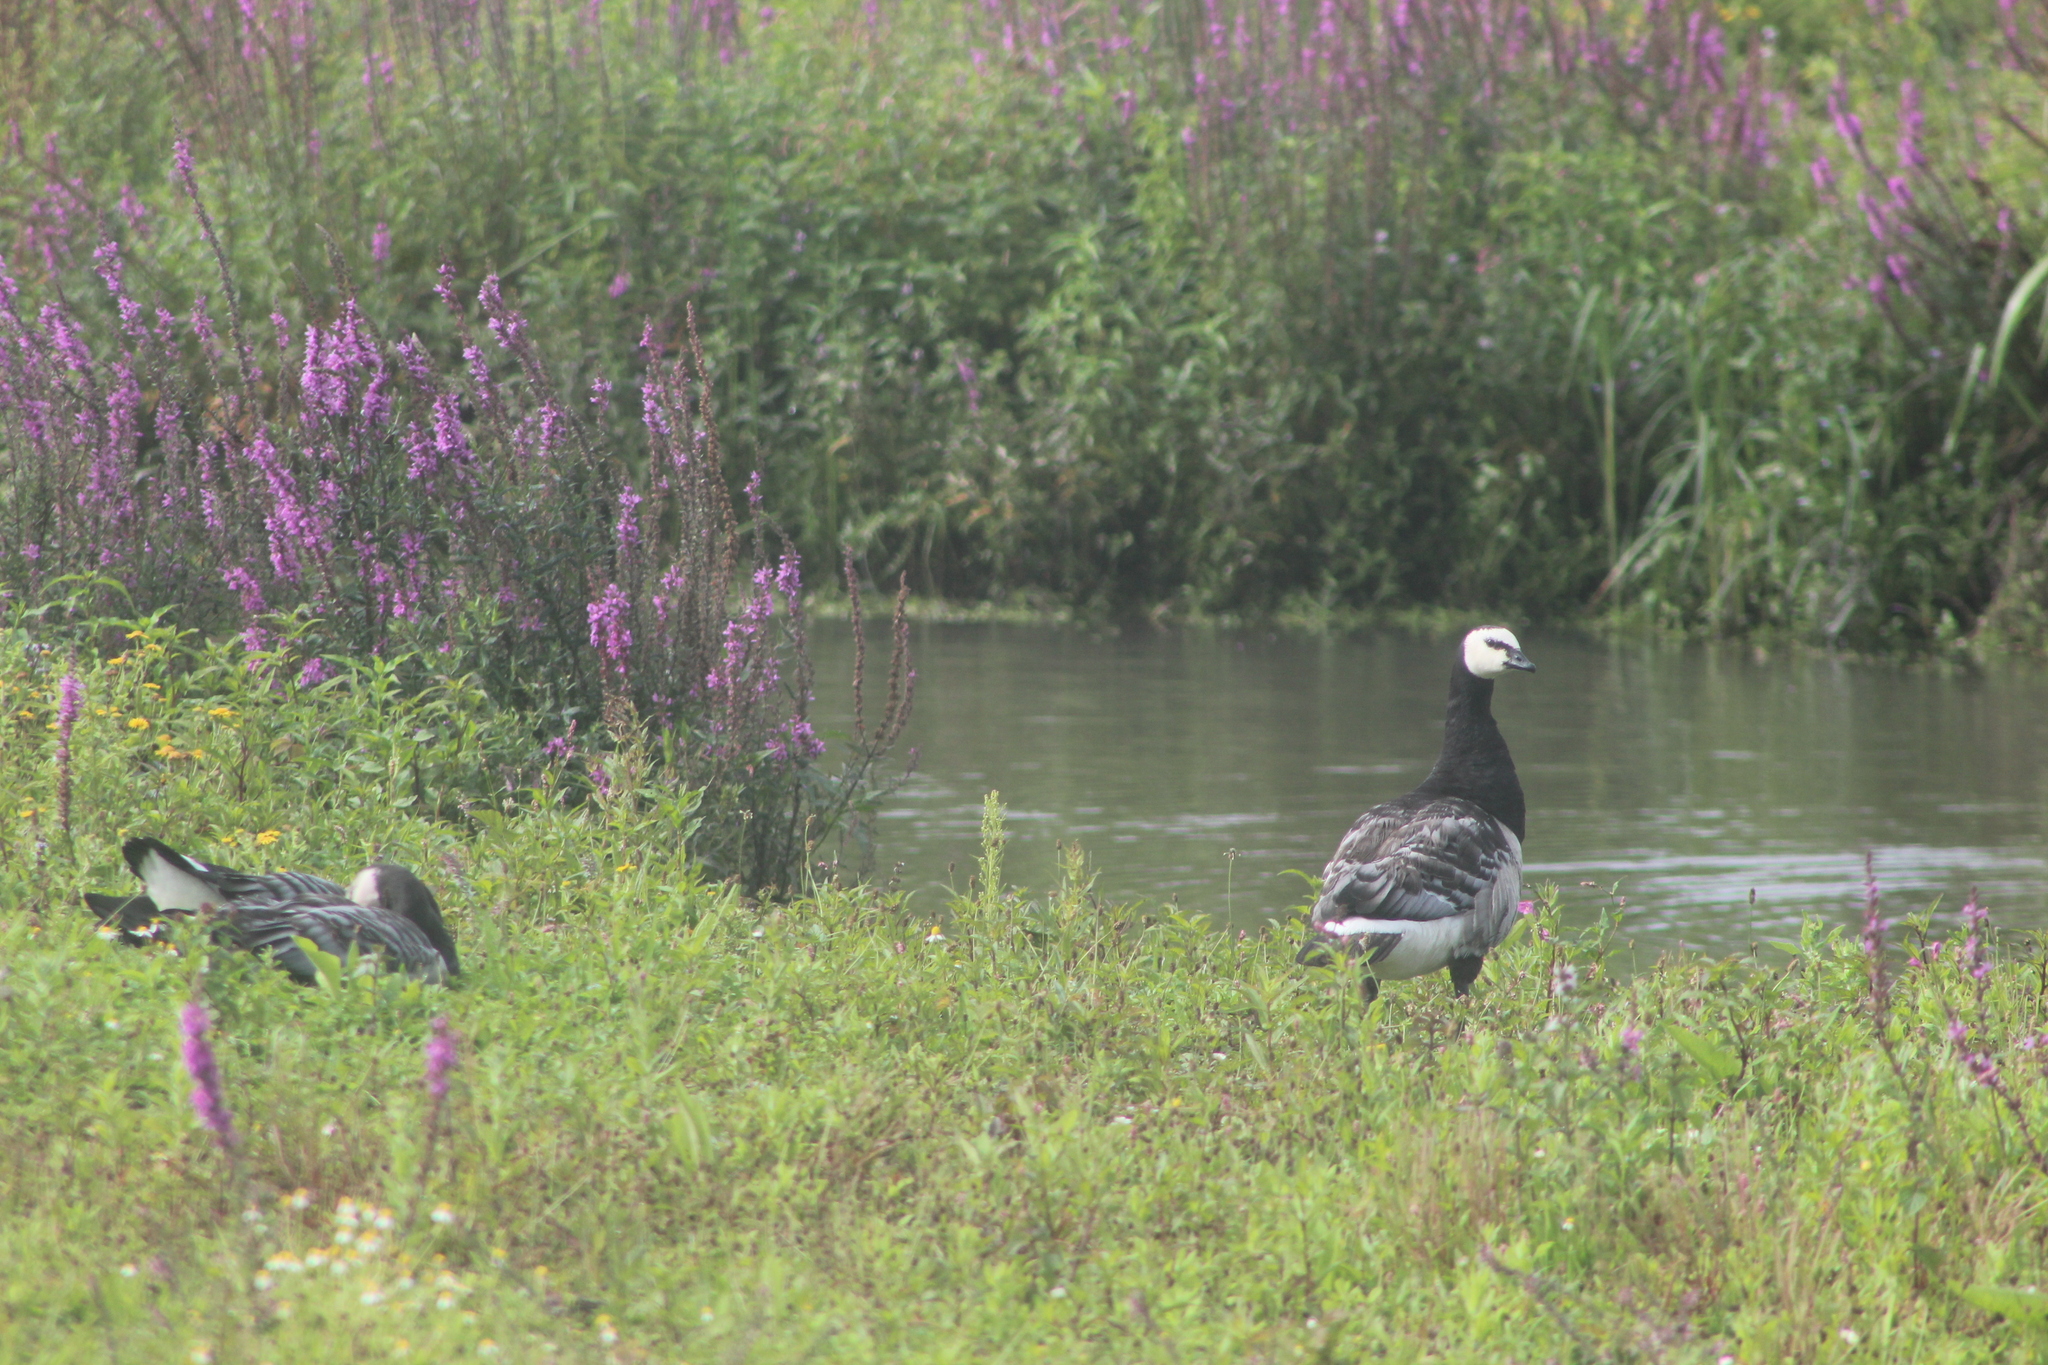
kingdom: Animalia
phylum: Chordata
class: Aves
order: Anseriformes
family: Anatidae
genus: Branta
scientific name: Branta leucopsis
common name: Barnacle goose
